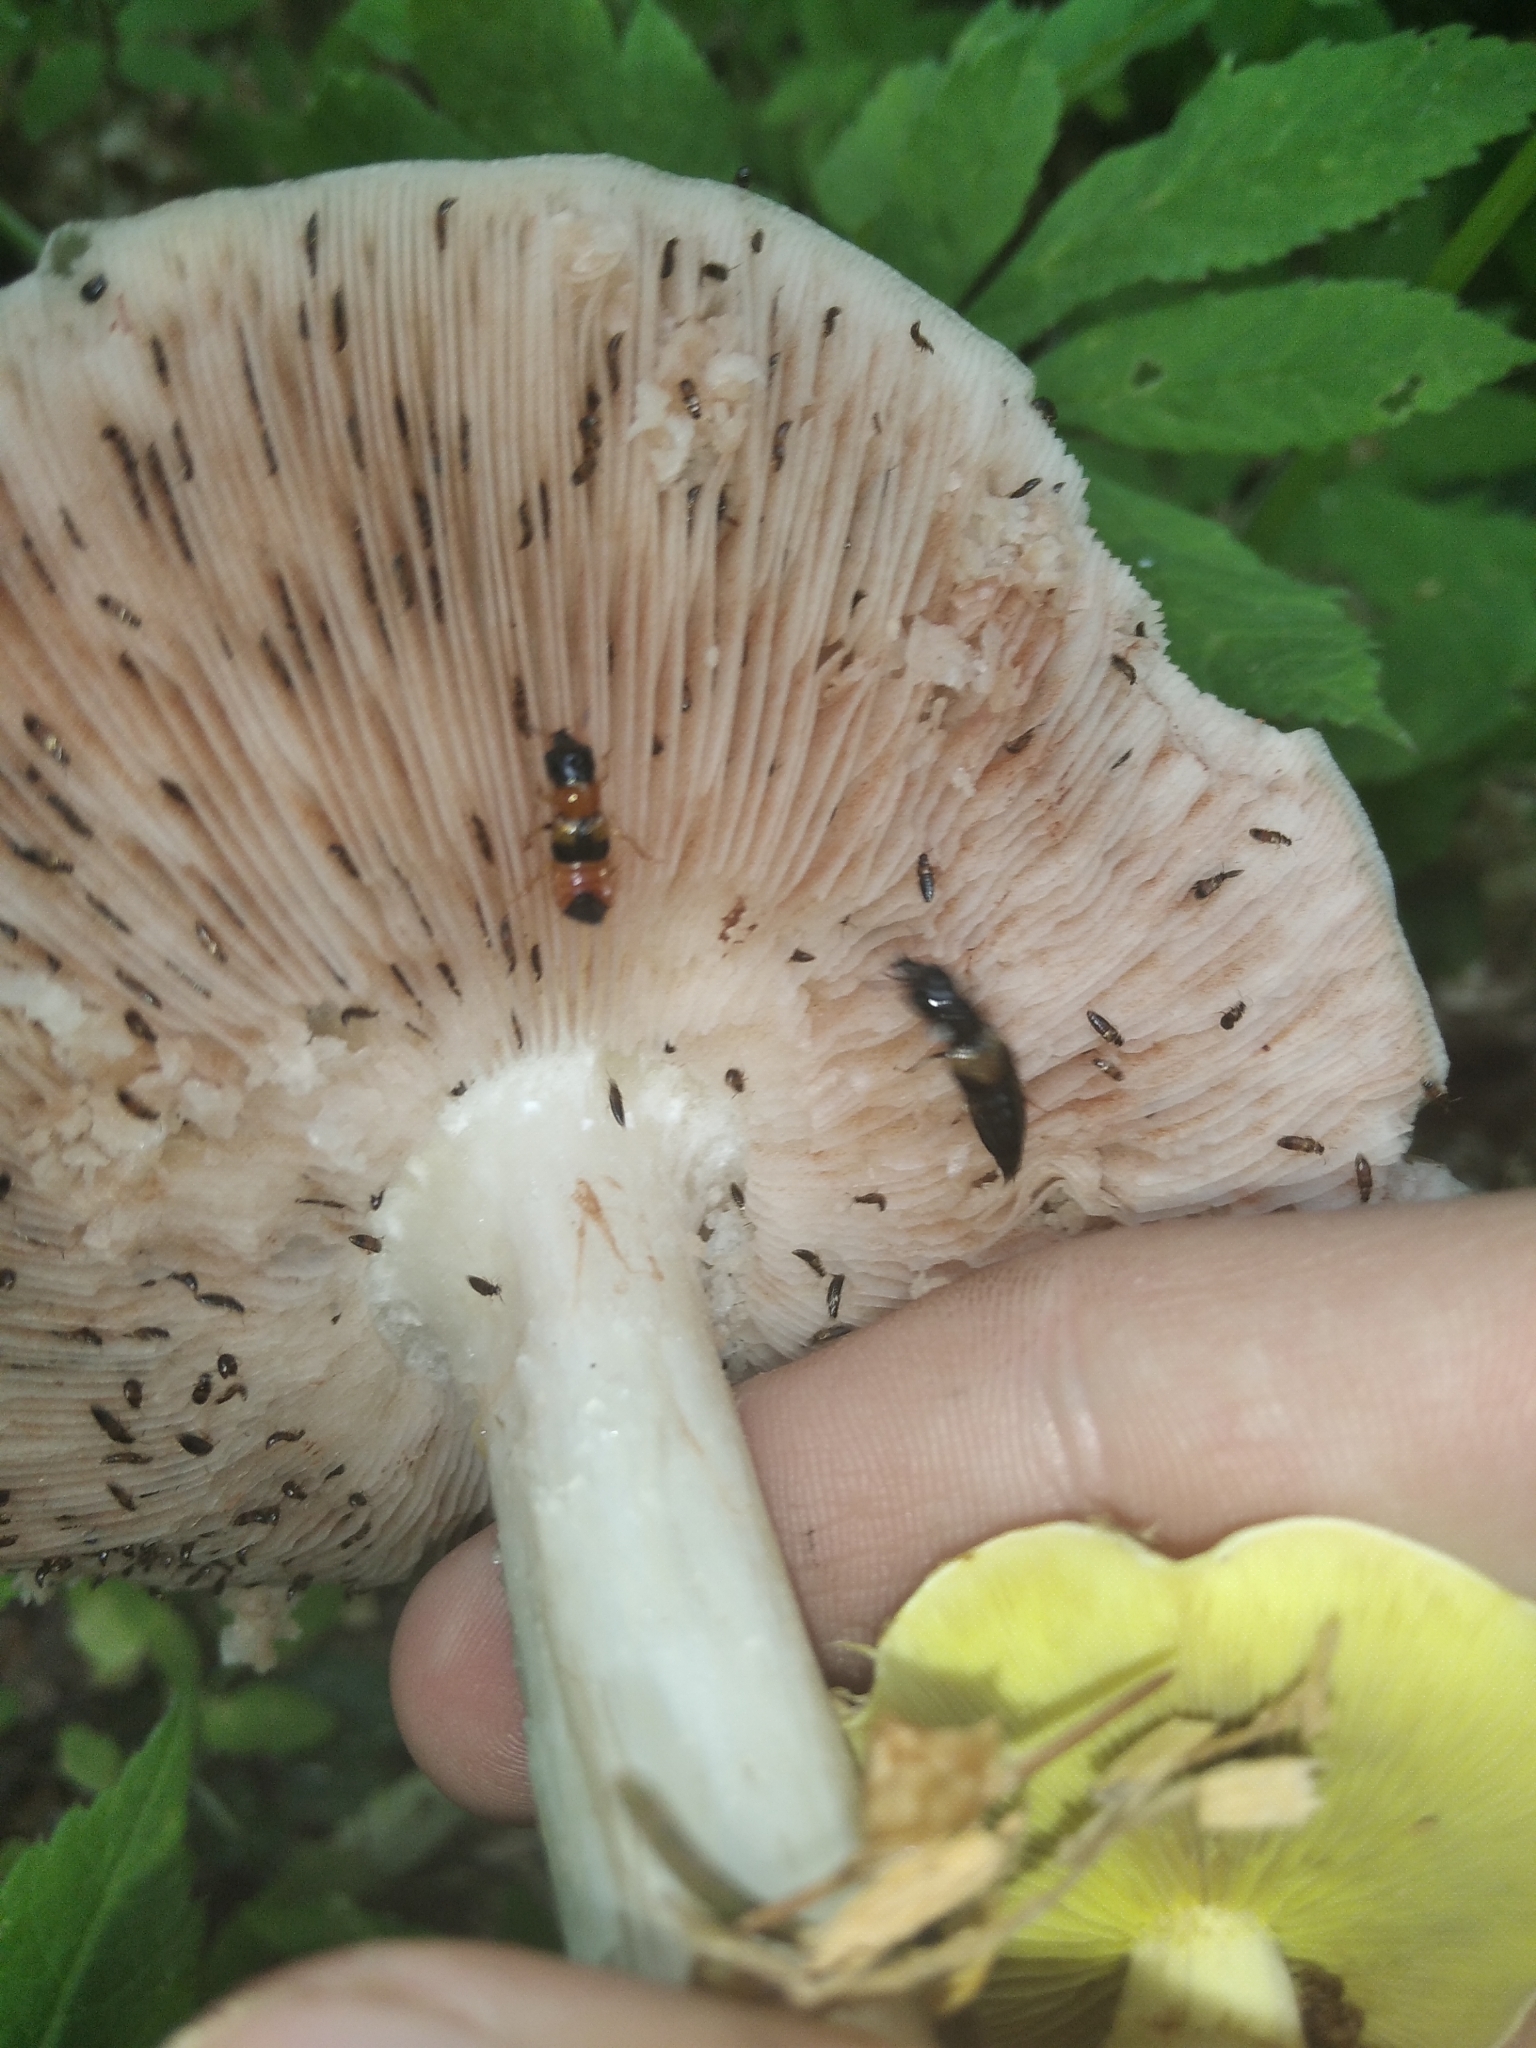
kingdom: Fungi
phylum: Basidiomycota
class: Agaricomycetes
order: Agaricales
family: Pluteaceae
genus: Pluteus
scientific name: Pluteus cervinus
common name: Deer shield
